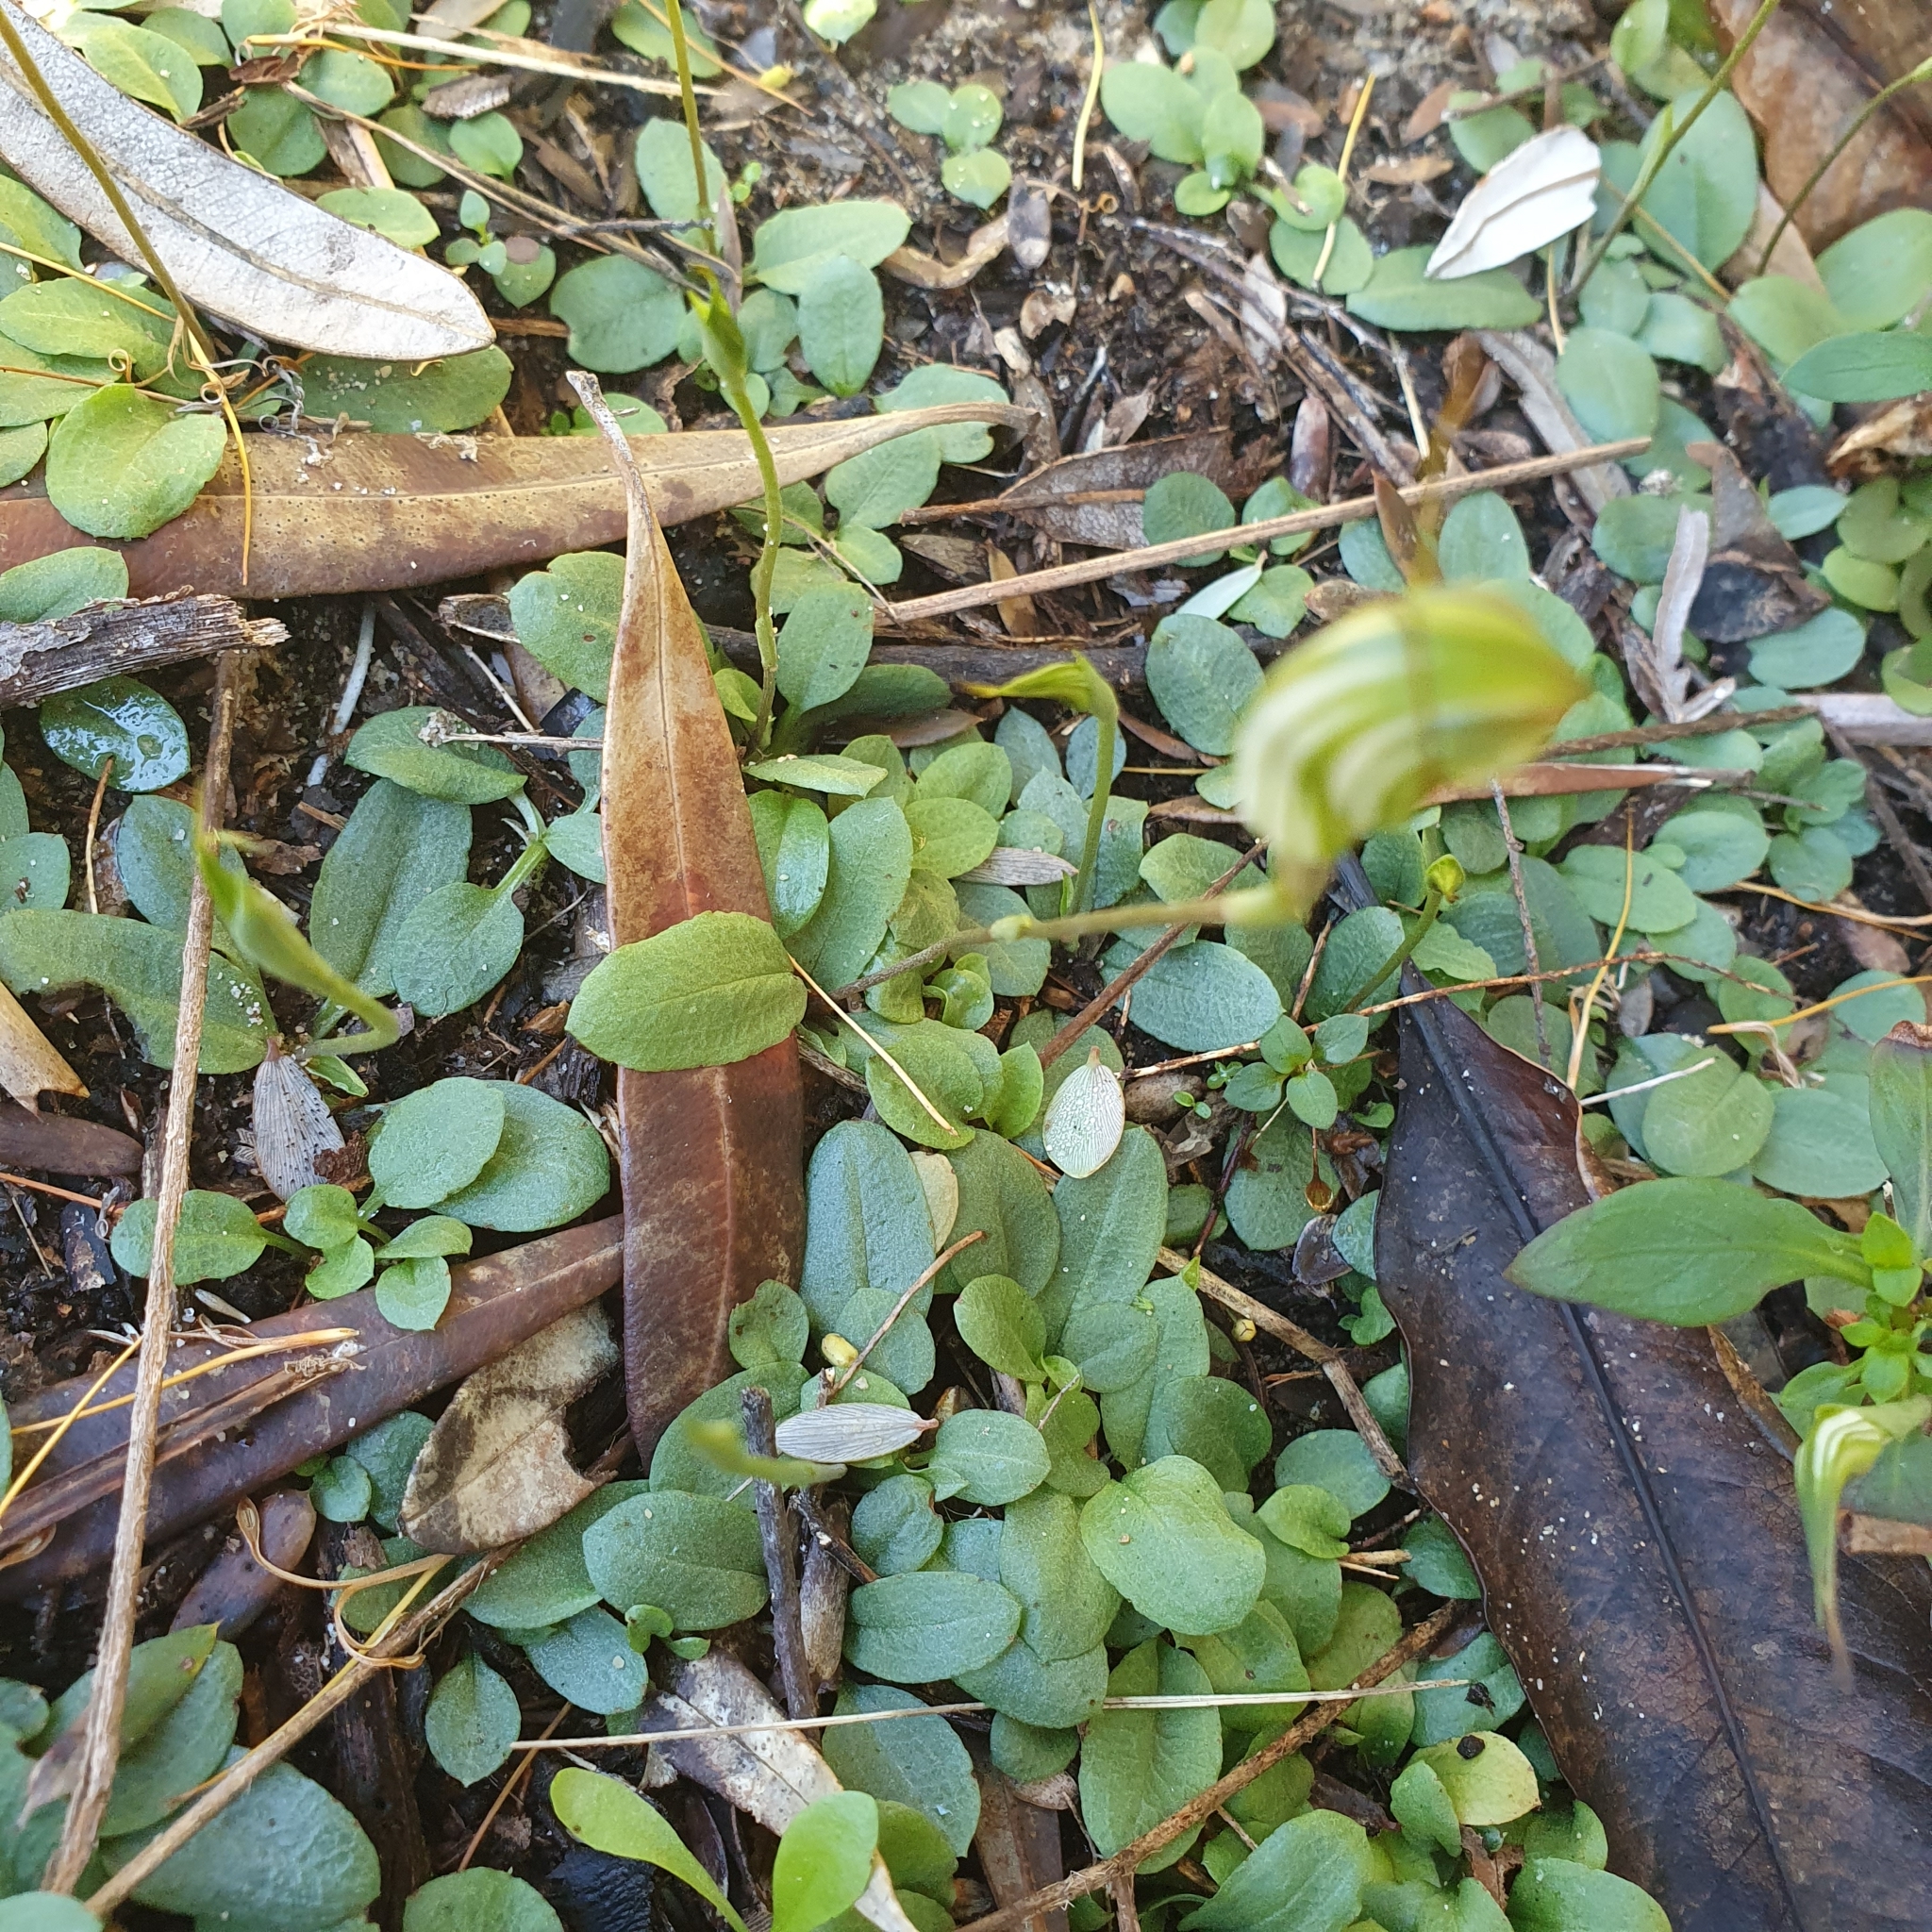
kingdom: Plantae
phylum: Tracheophyta
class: Liliopsida
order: Asparagales
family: Orchidaceae
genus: Pterostylis
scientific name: Pterostylis concinna
